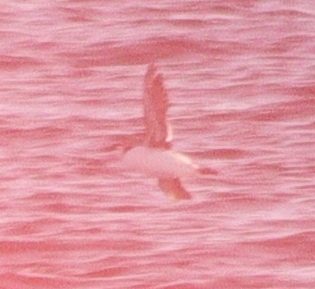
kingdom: Animalia
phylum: Chordata
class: Aves
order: Charadriiformes
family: Alcidae
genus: Uria
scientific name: Uria aalge
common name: Common murre
